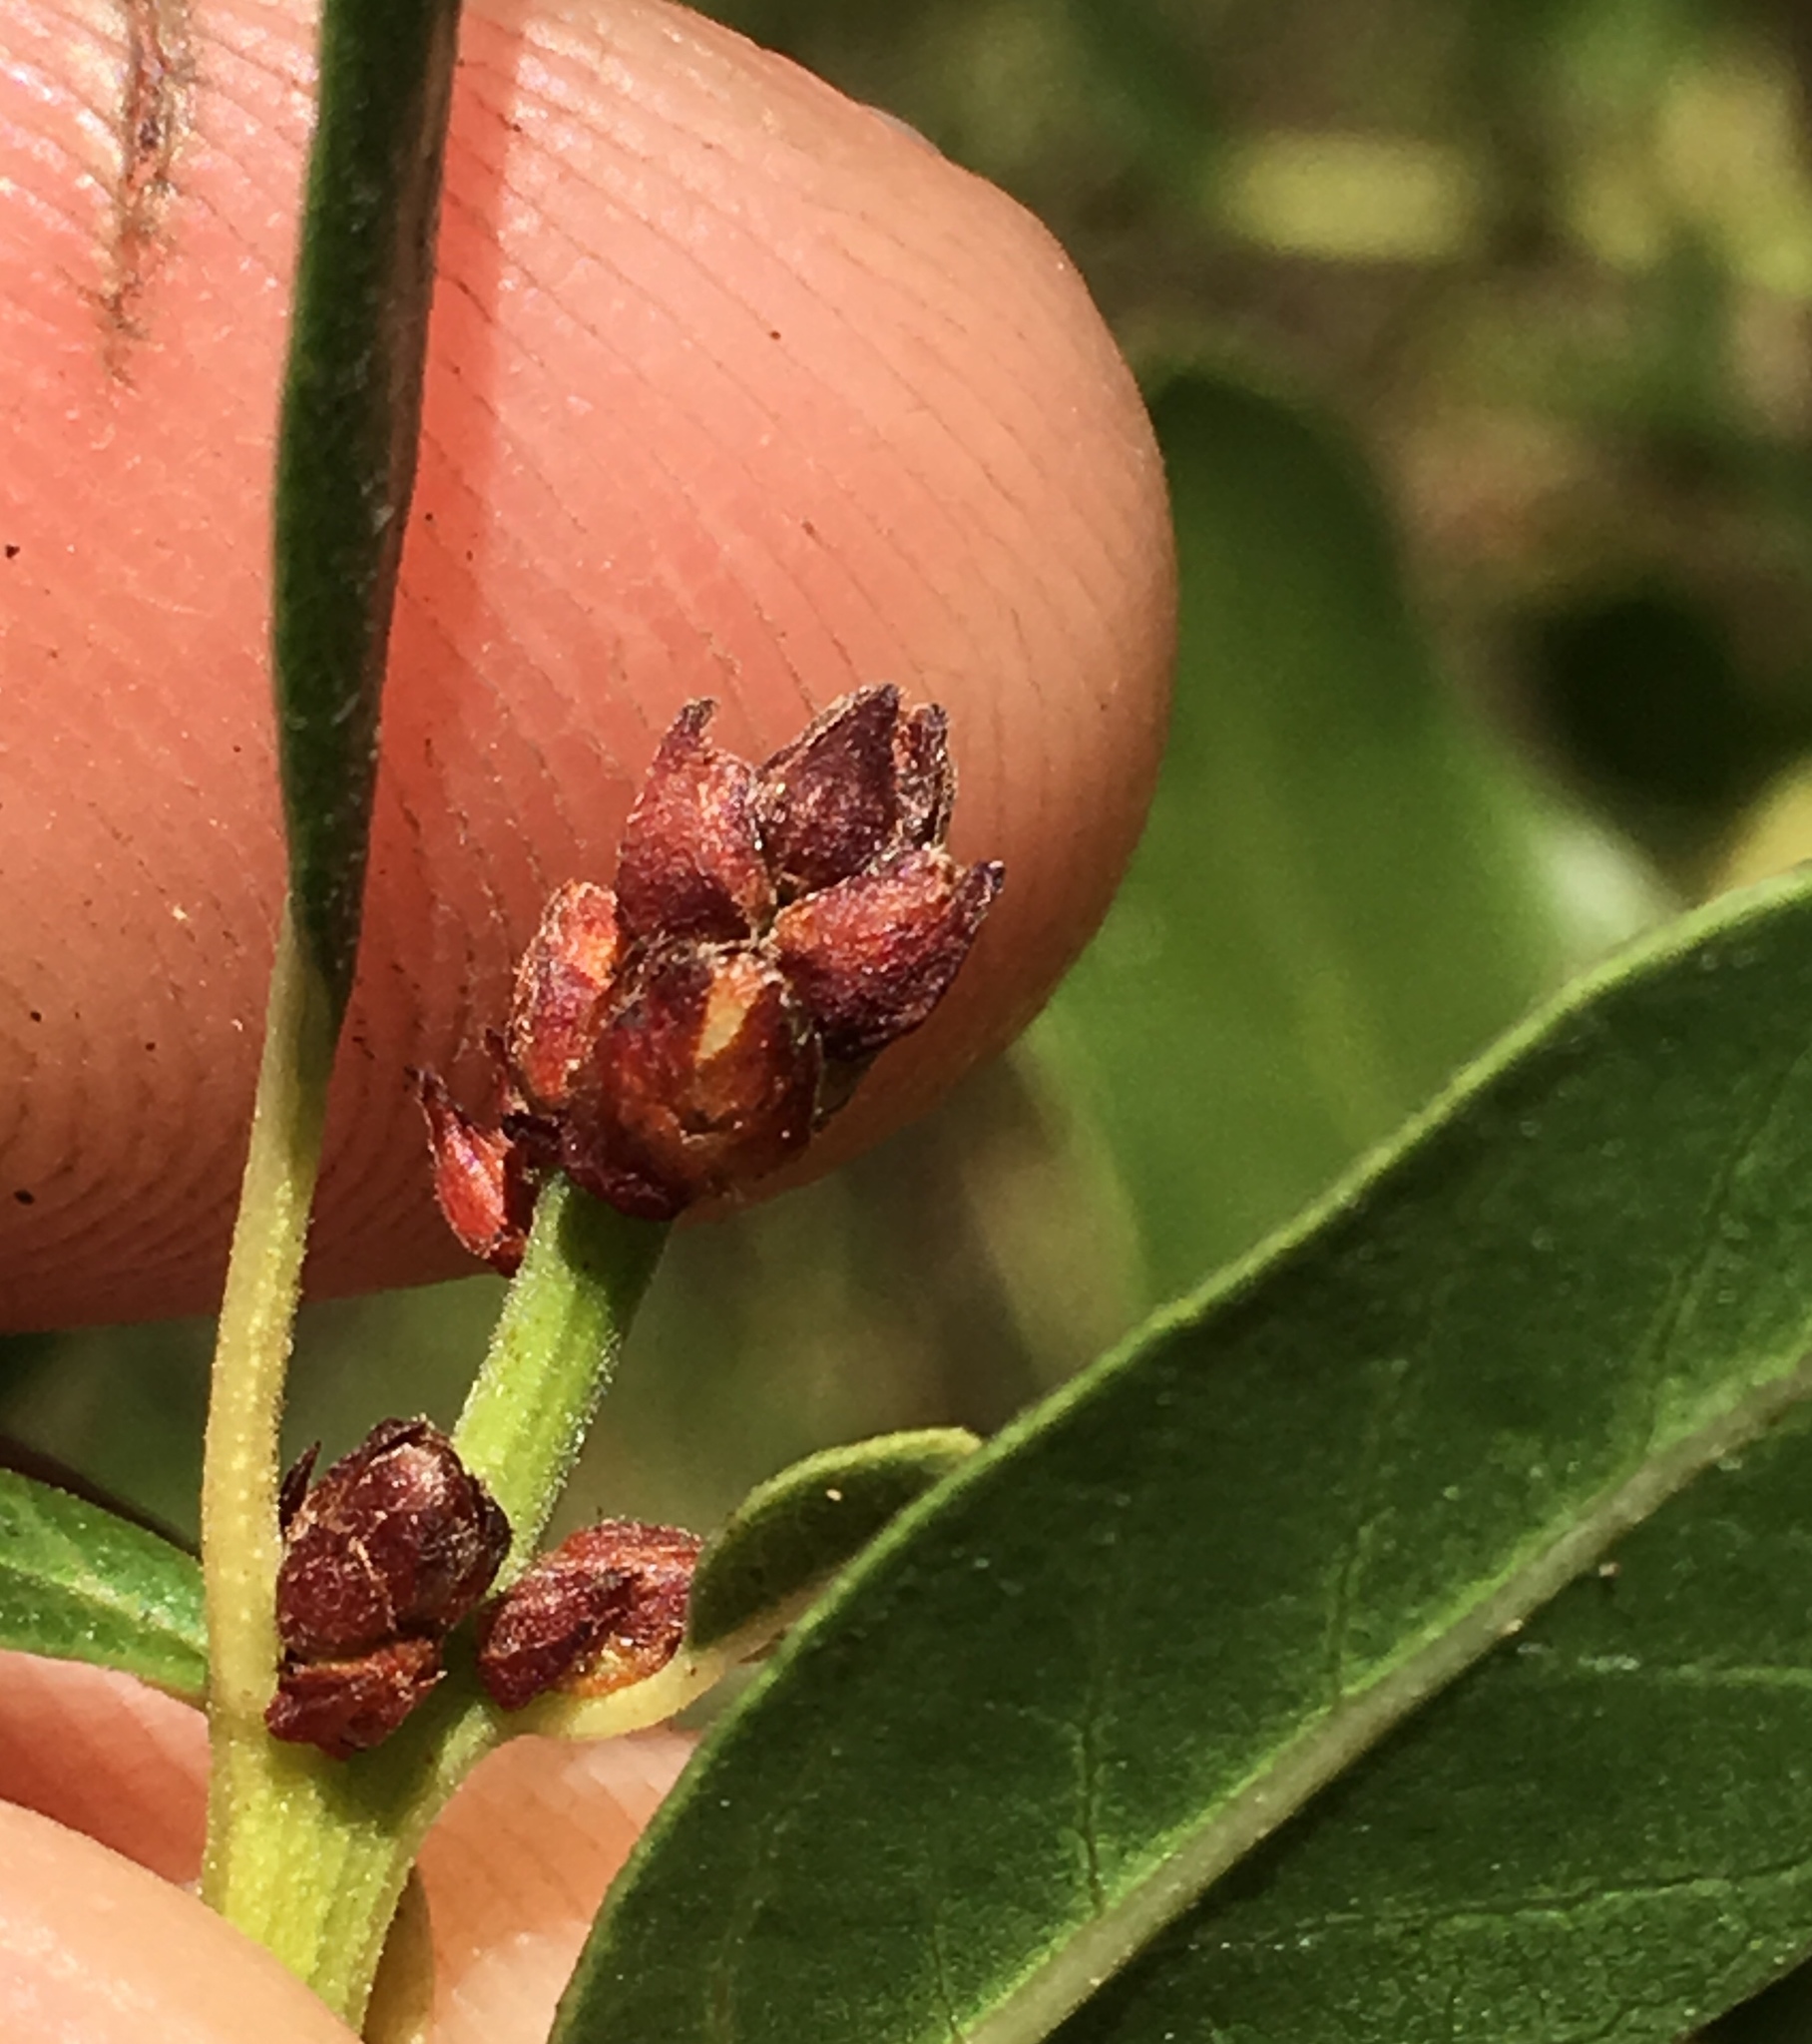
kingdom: Plantae
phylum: Tracheophyta
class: Magnoliopsida
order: Rosales
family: Rhamnaceae
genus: Ceanothus
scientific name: Ceanothus spinosus
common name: Greenbark whitethorn
